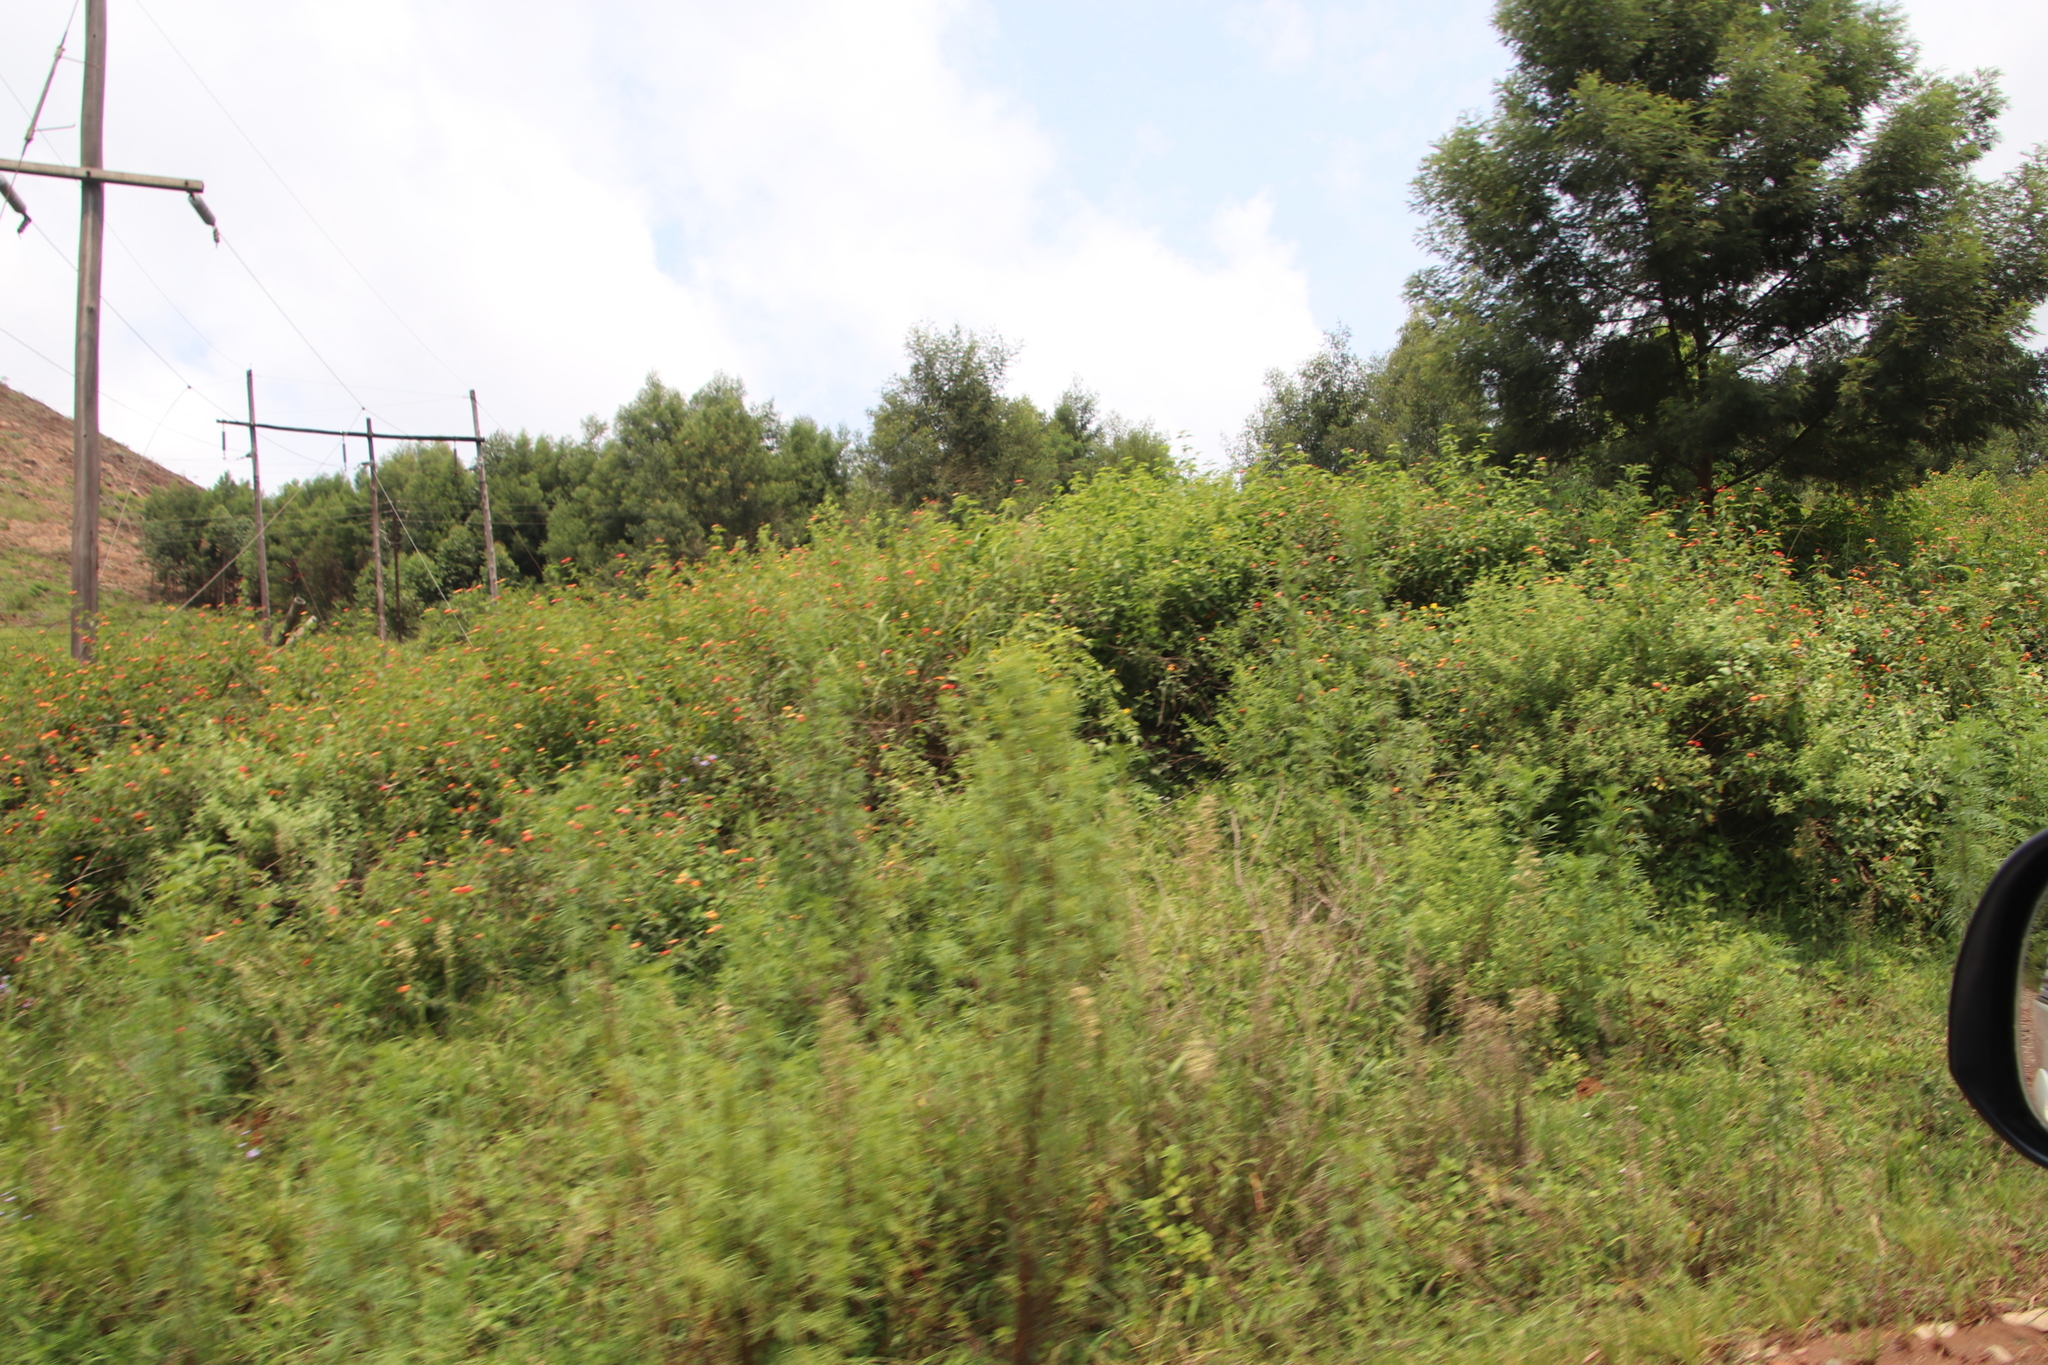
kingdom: Plantae
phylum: Tracheophyta
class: Magnoliopsida
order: Lamiales
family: Verbenaceae
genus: Lantana
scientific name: Lantana camara
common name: Lantana
